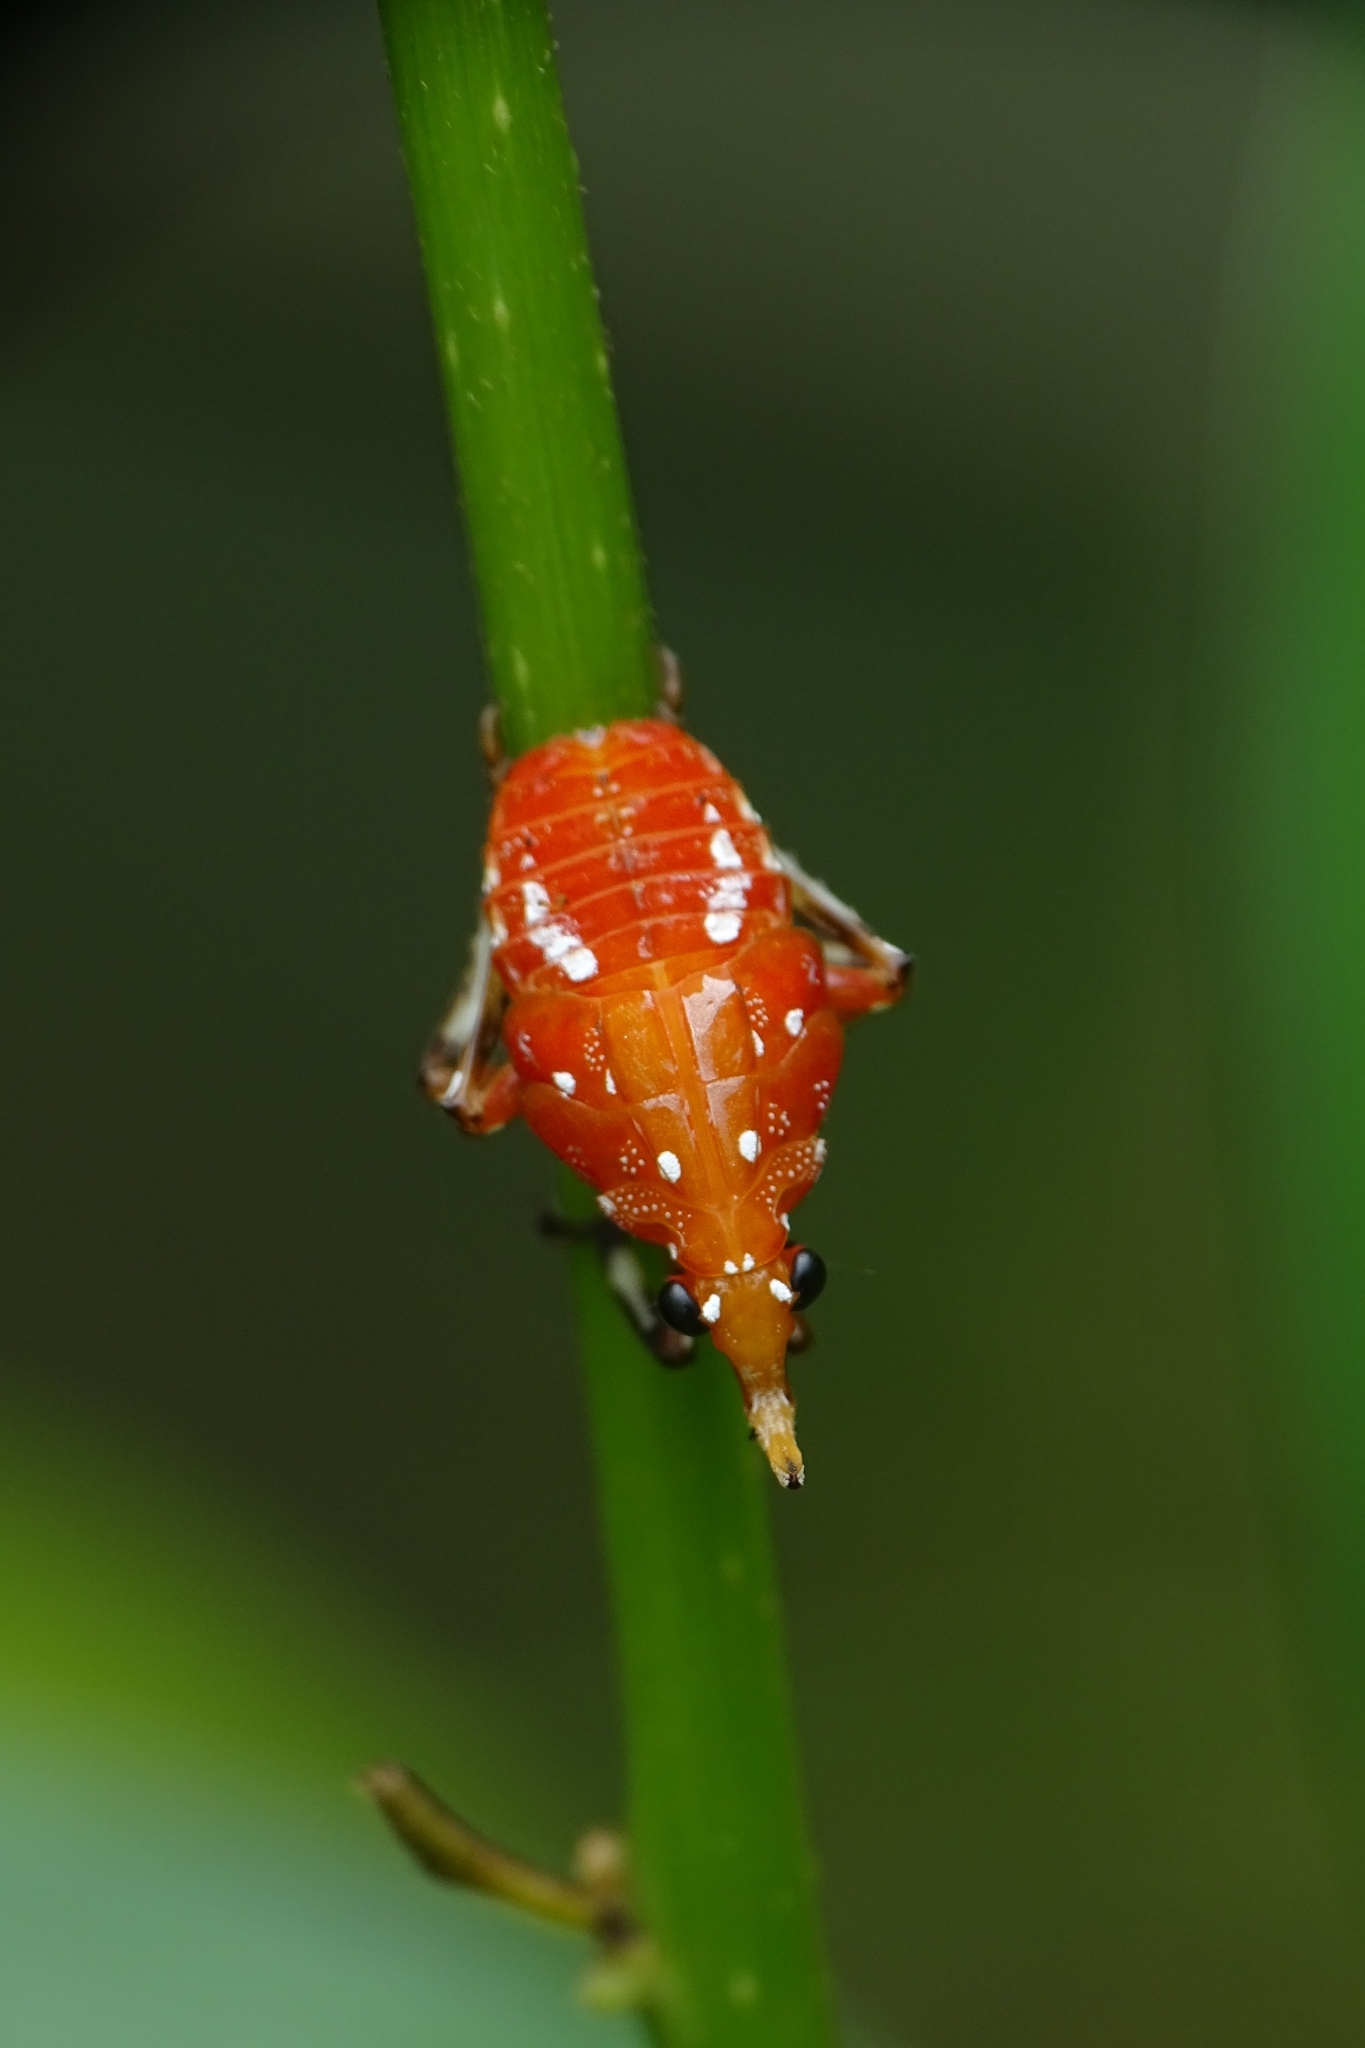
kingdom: Animalia
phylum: Arthropoda
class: Insecta
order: Hemiptera
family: Fulgoridae
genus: Kalidasa
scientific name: Kalidasa lanata
